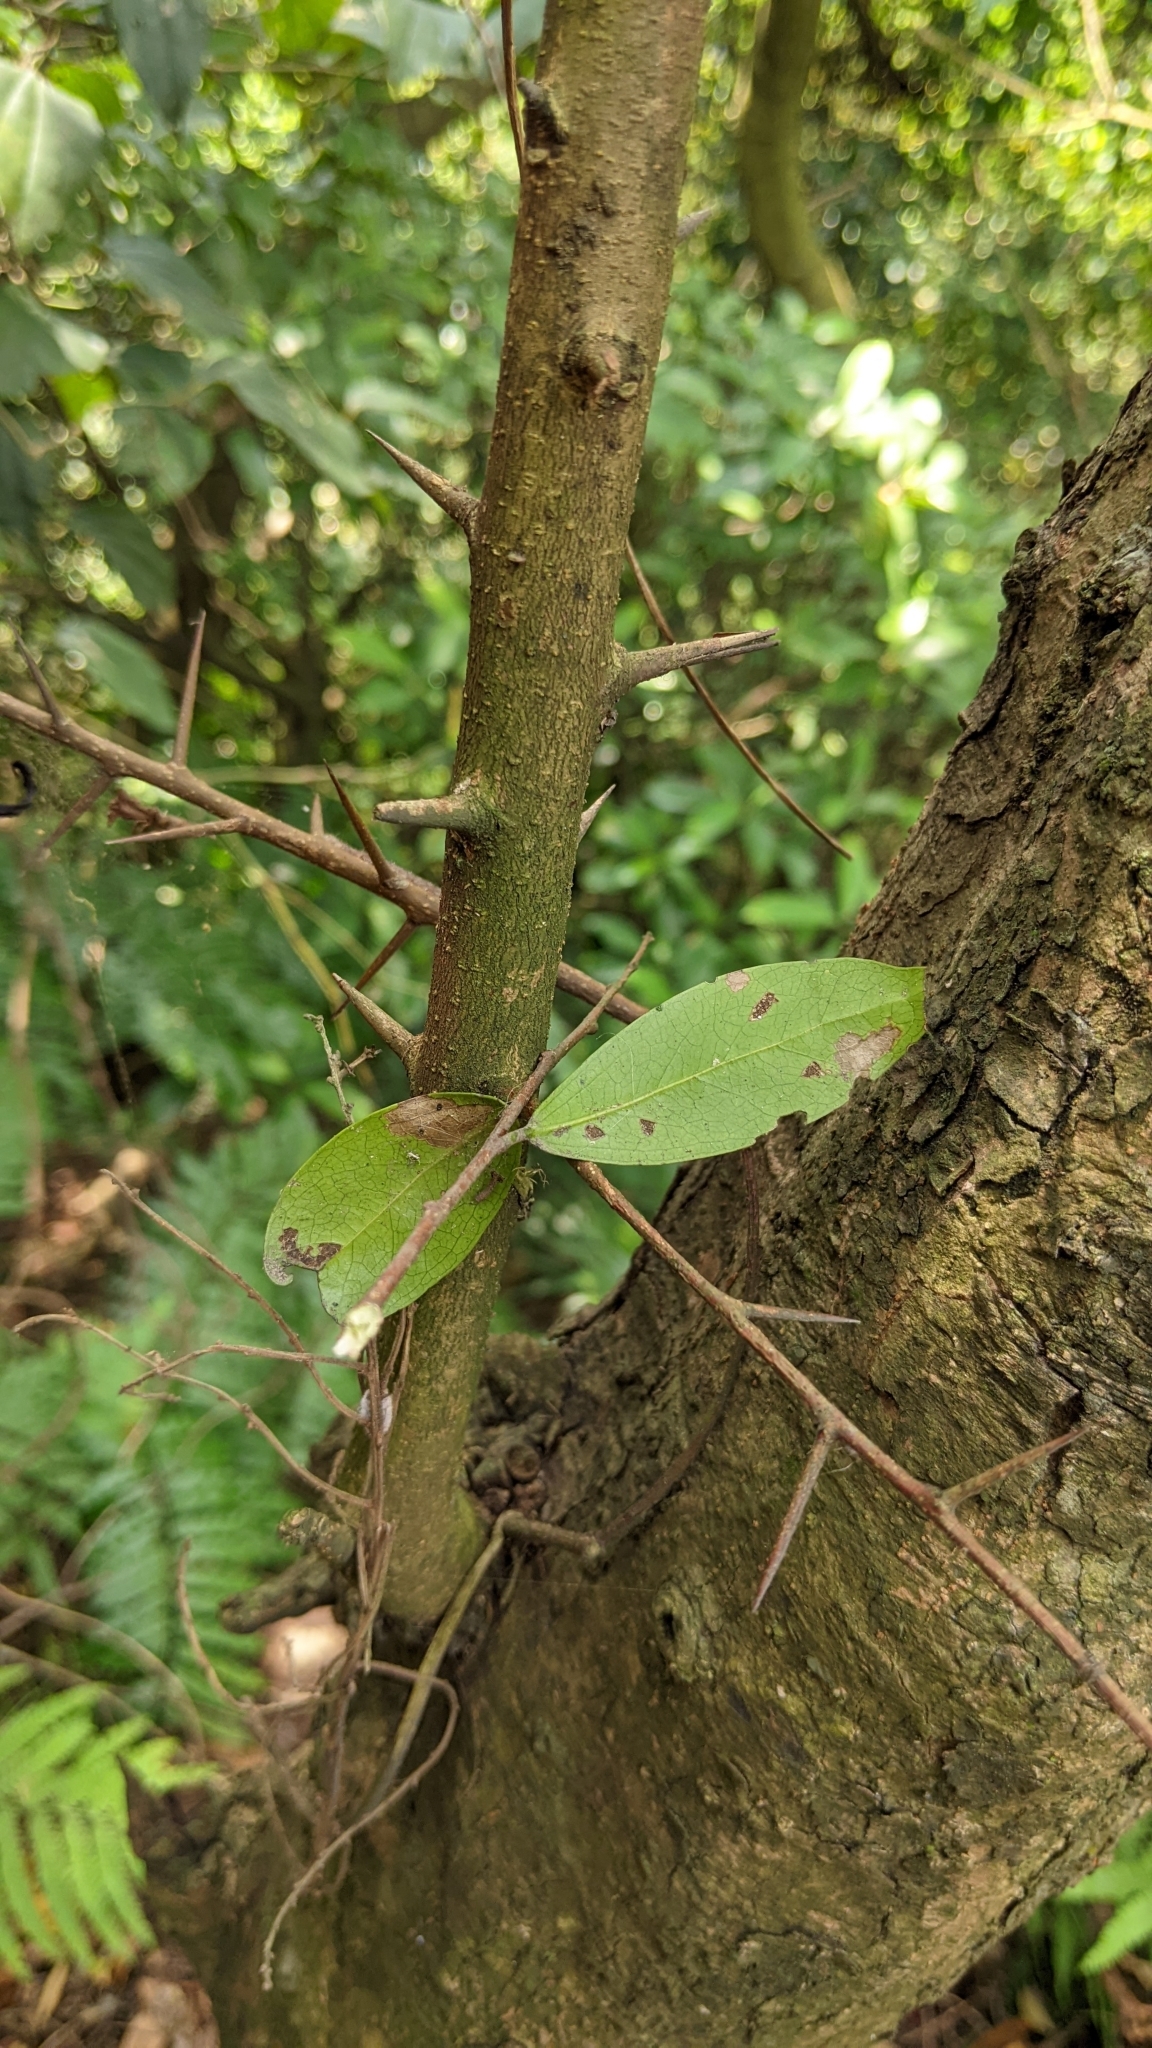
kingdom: Plantae
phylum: Tracheophyta
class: Magnoliopsida
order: Malpighiales
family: Salicaceae
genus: Scolopia
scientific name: Scolopia oldhamii
